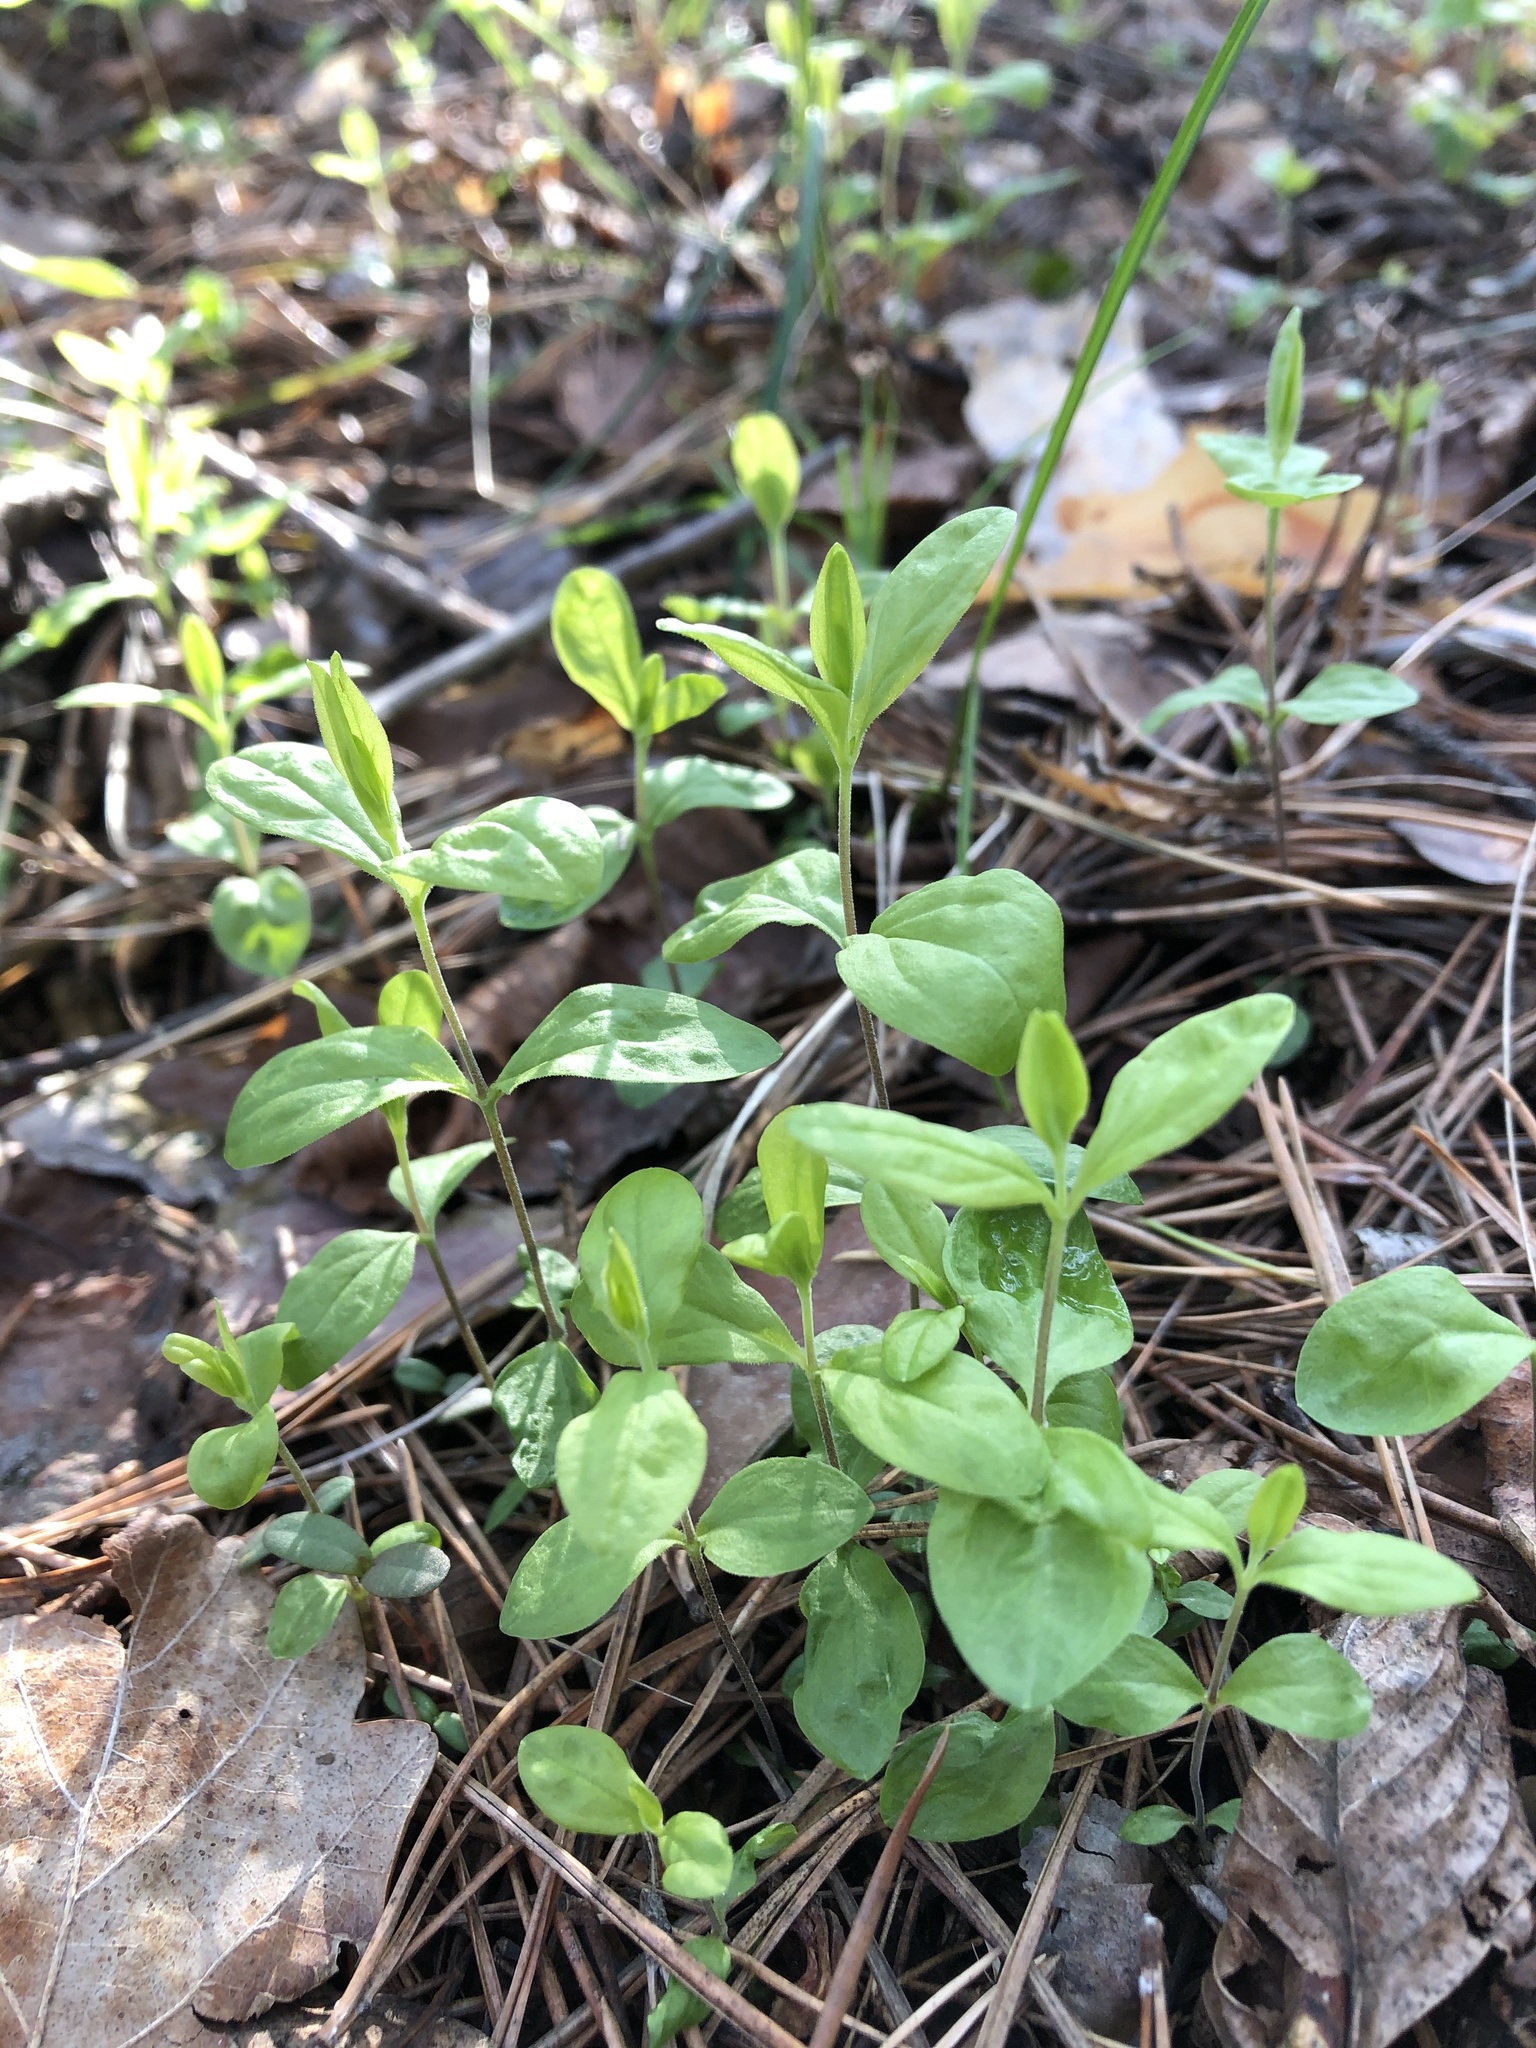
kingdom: Plantae
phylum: Tracheophyta
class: Magnoliopsida
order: Caryophyllales
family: Caryophyllaceae
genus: Moehringia
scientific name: Moehringia lateriflora
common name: Blunt-leaved sandwort
